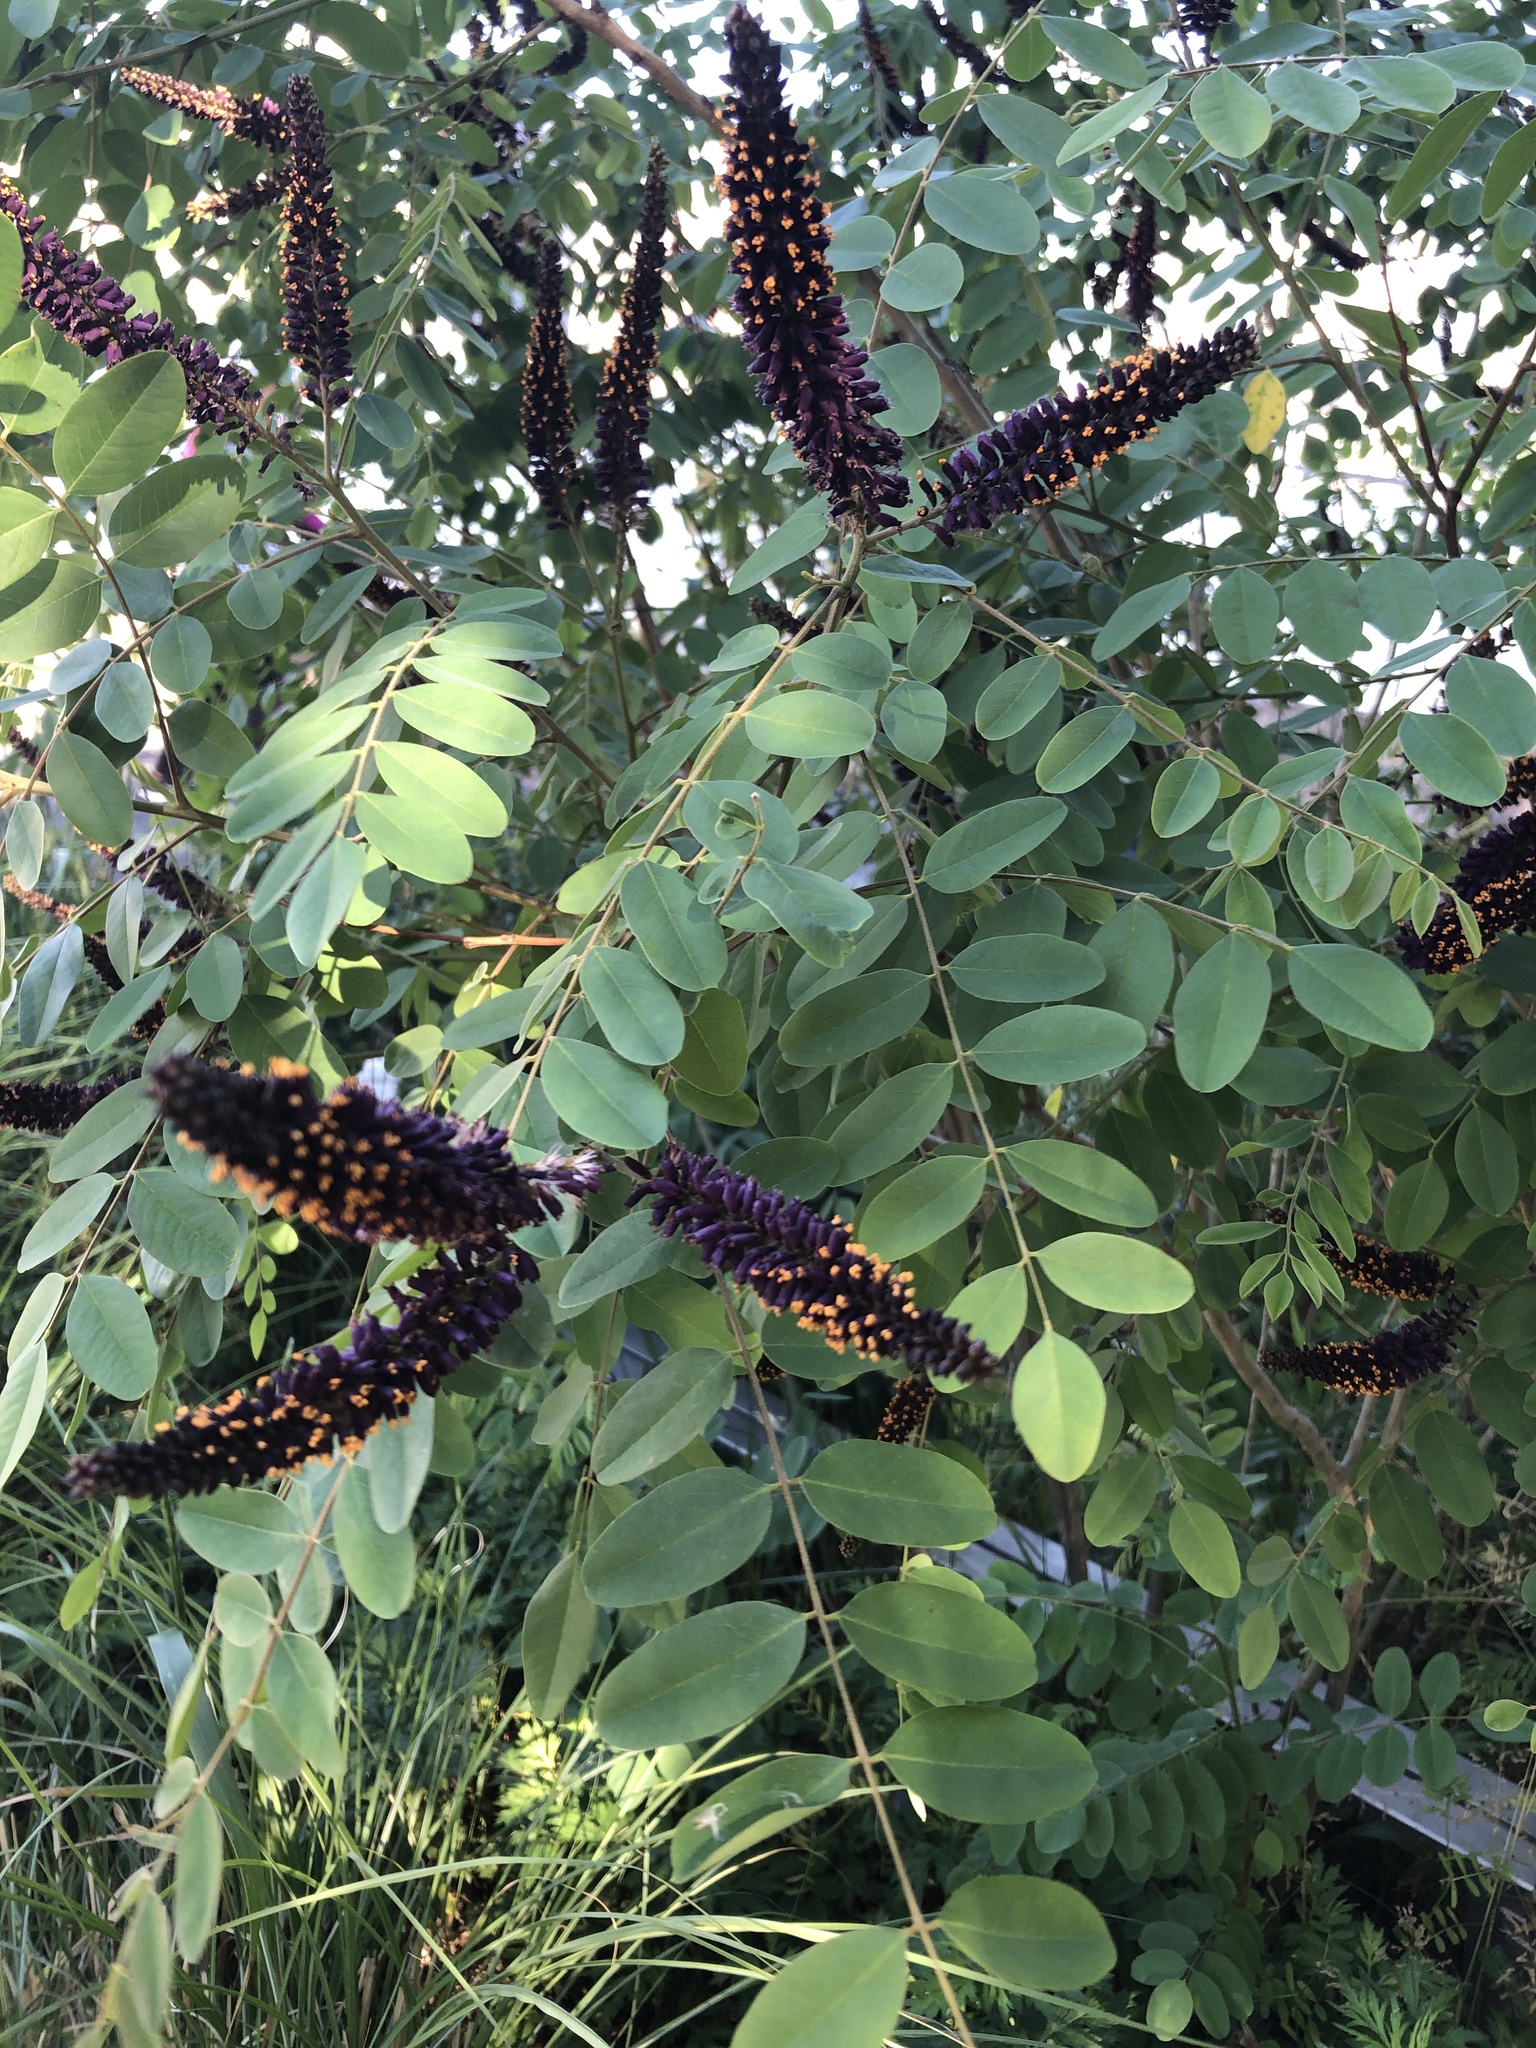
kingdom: Plantae
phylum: Tracheophyta
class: Magnoliopsida
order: Fabales
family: Fabaceae
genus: Amorpha
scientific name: Amorpha fruticosa
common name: False indigo
